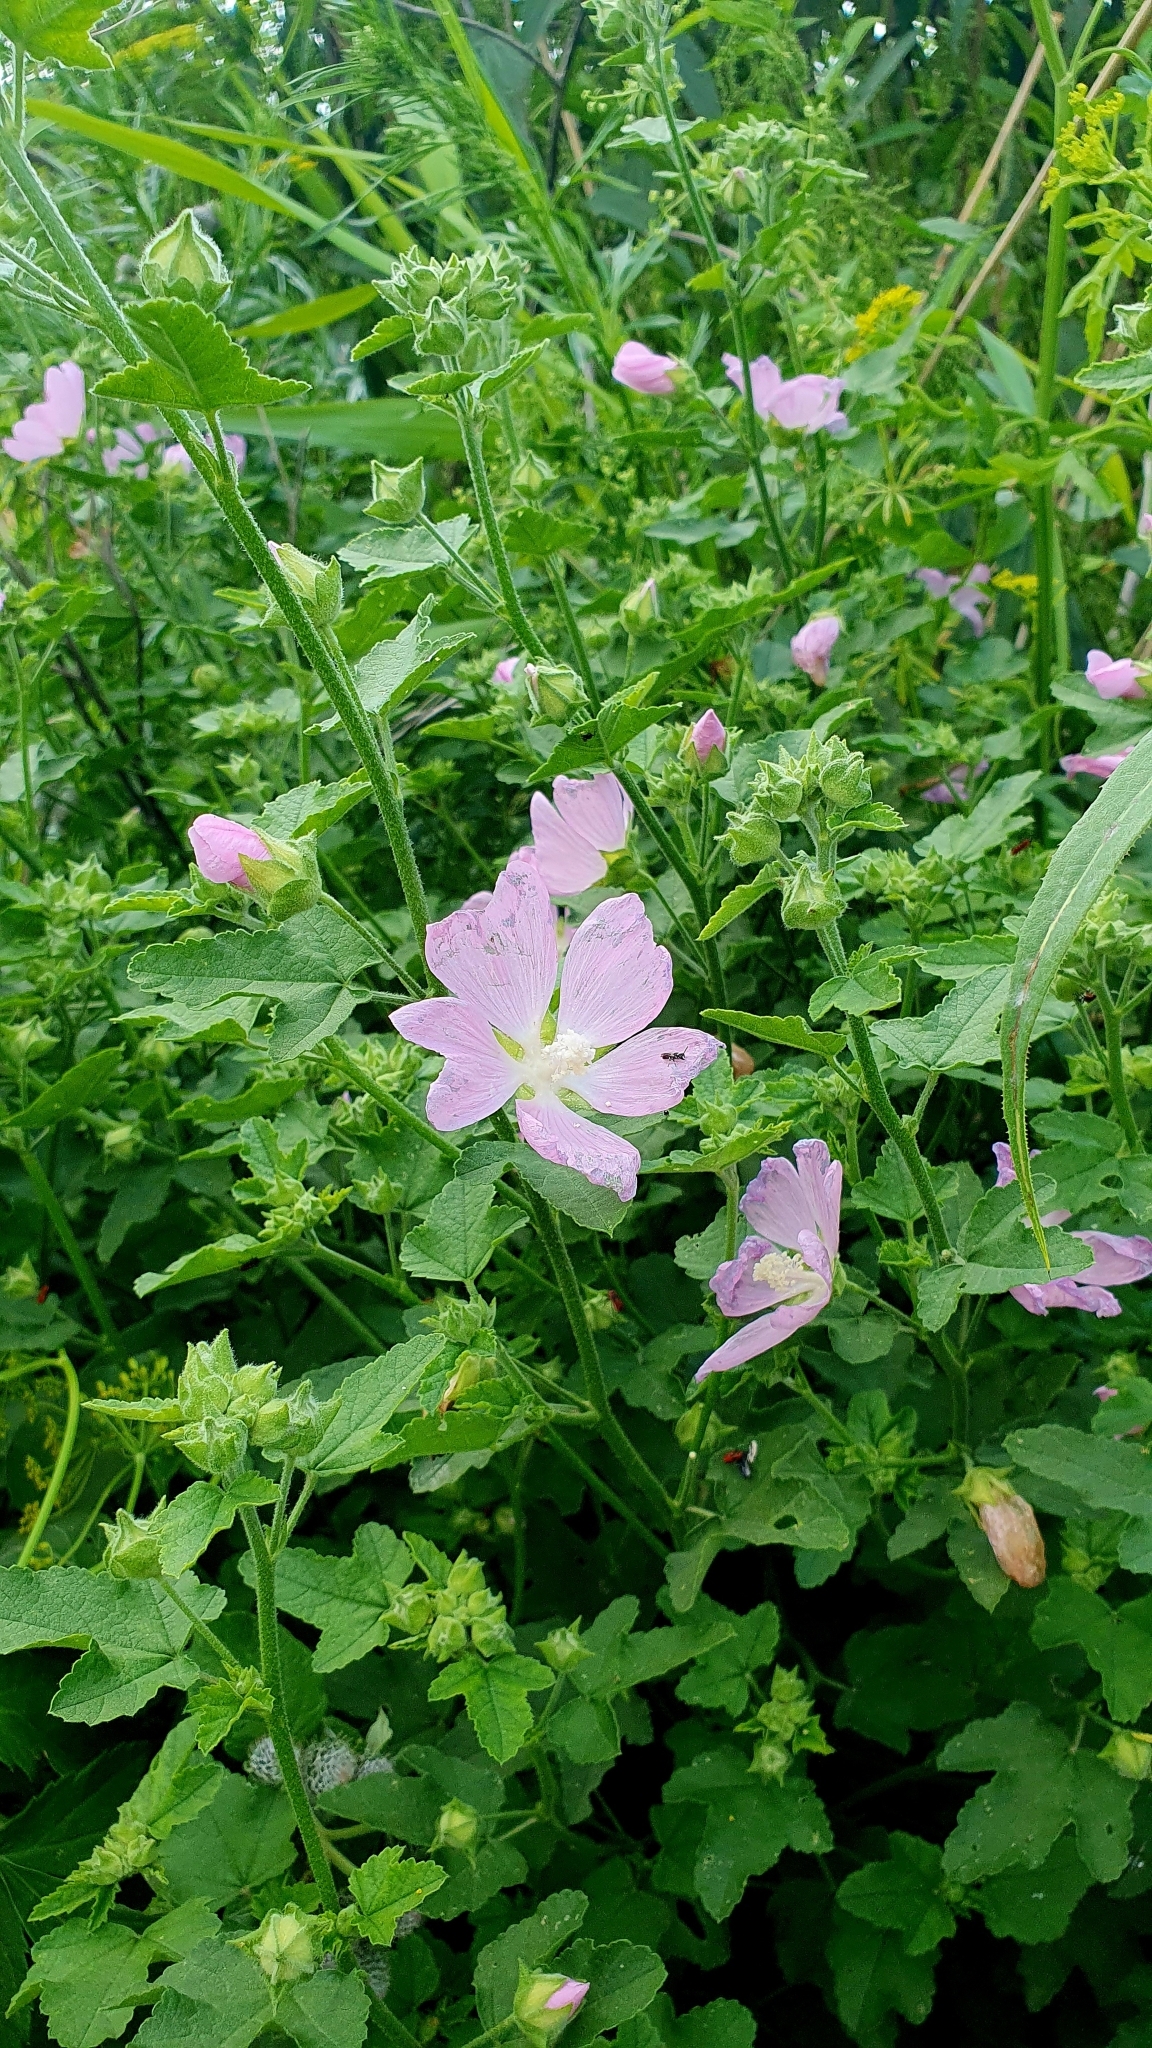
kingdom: Plantae
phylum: Tracheophyta
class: Magnoliopsida
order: Malvales
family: Malvaceae
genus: Malva
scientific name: Malva thuringiaca
